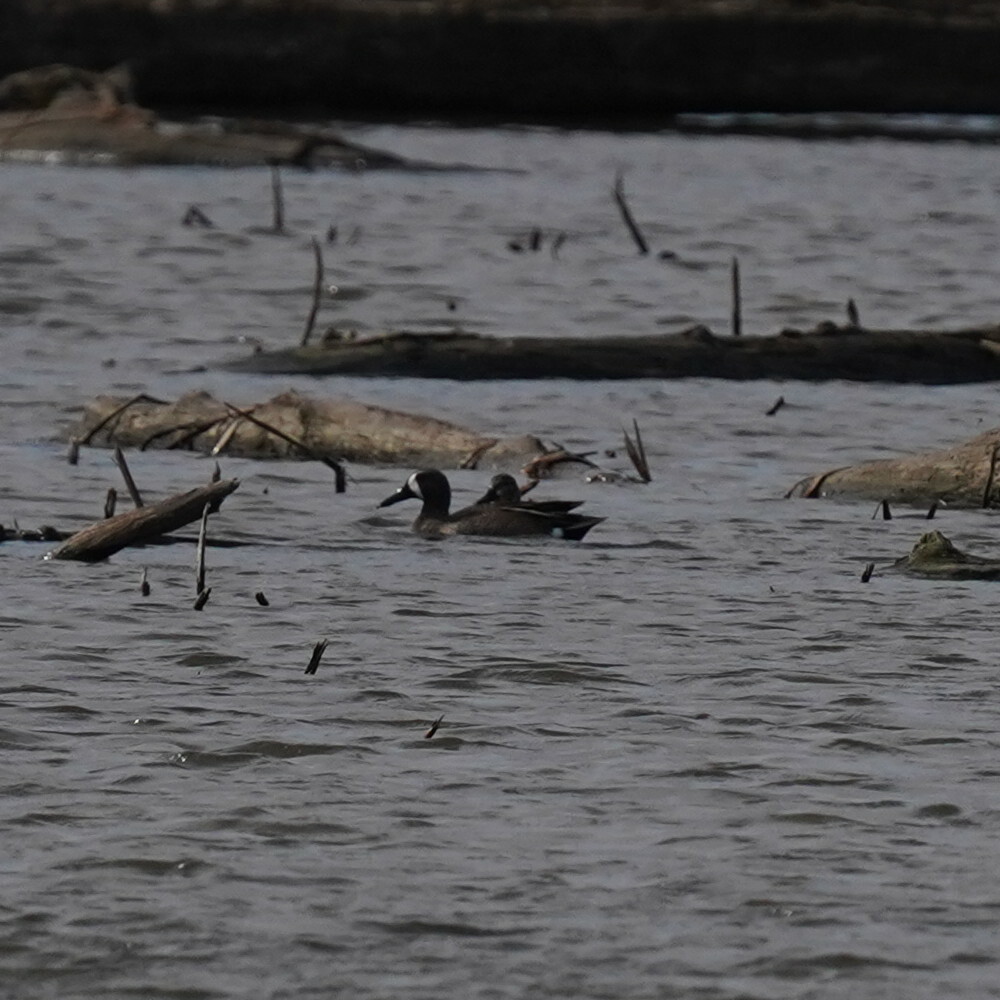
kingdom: Animalia
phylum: Chordata
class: Aves
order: Anseriformes
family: Anatidae
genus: Spatula
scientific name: Spatula discors
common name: Blue-winged teal
